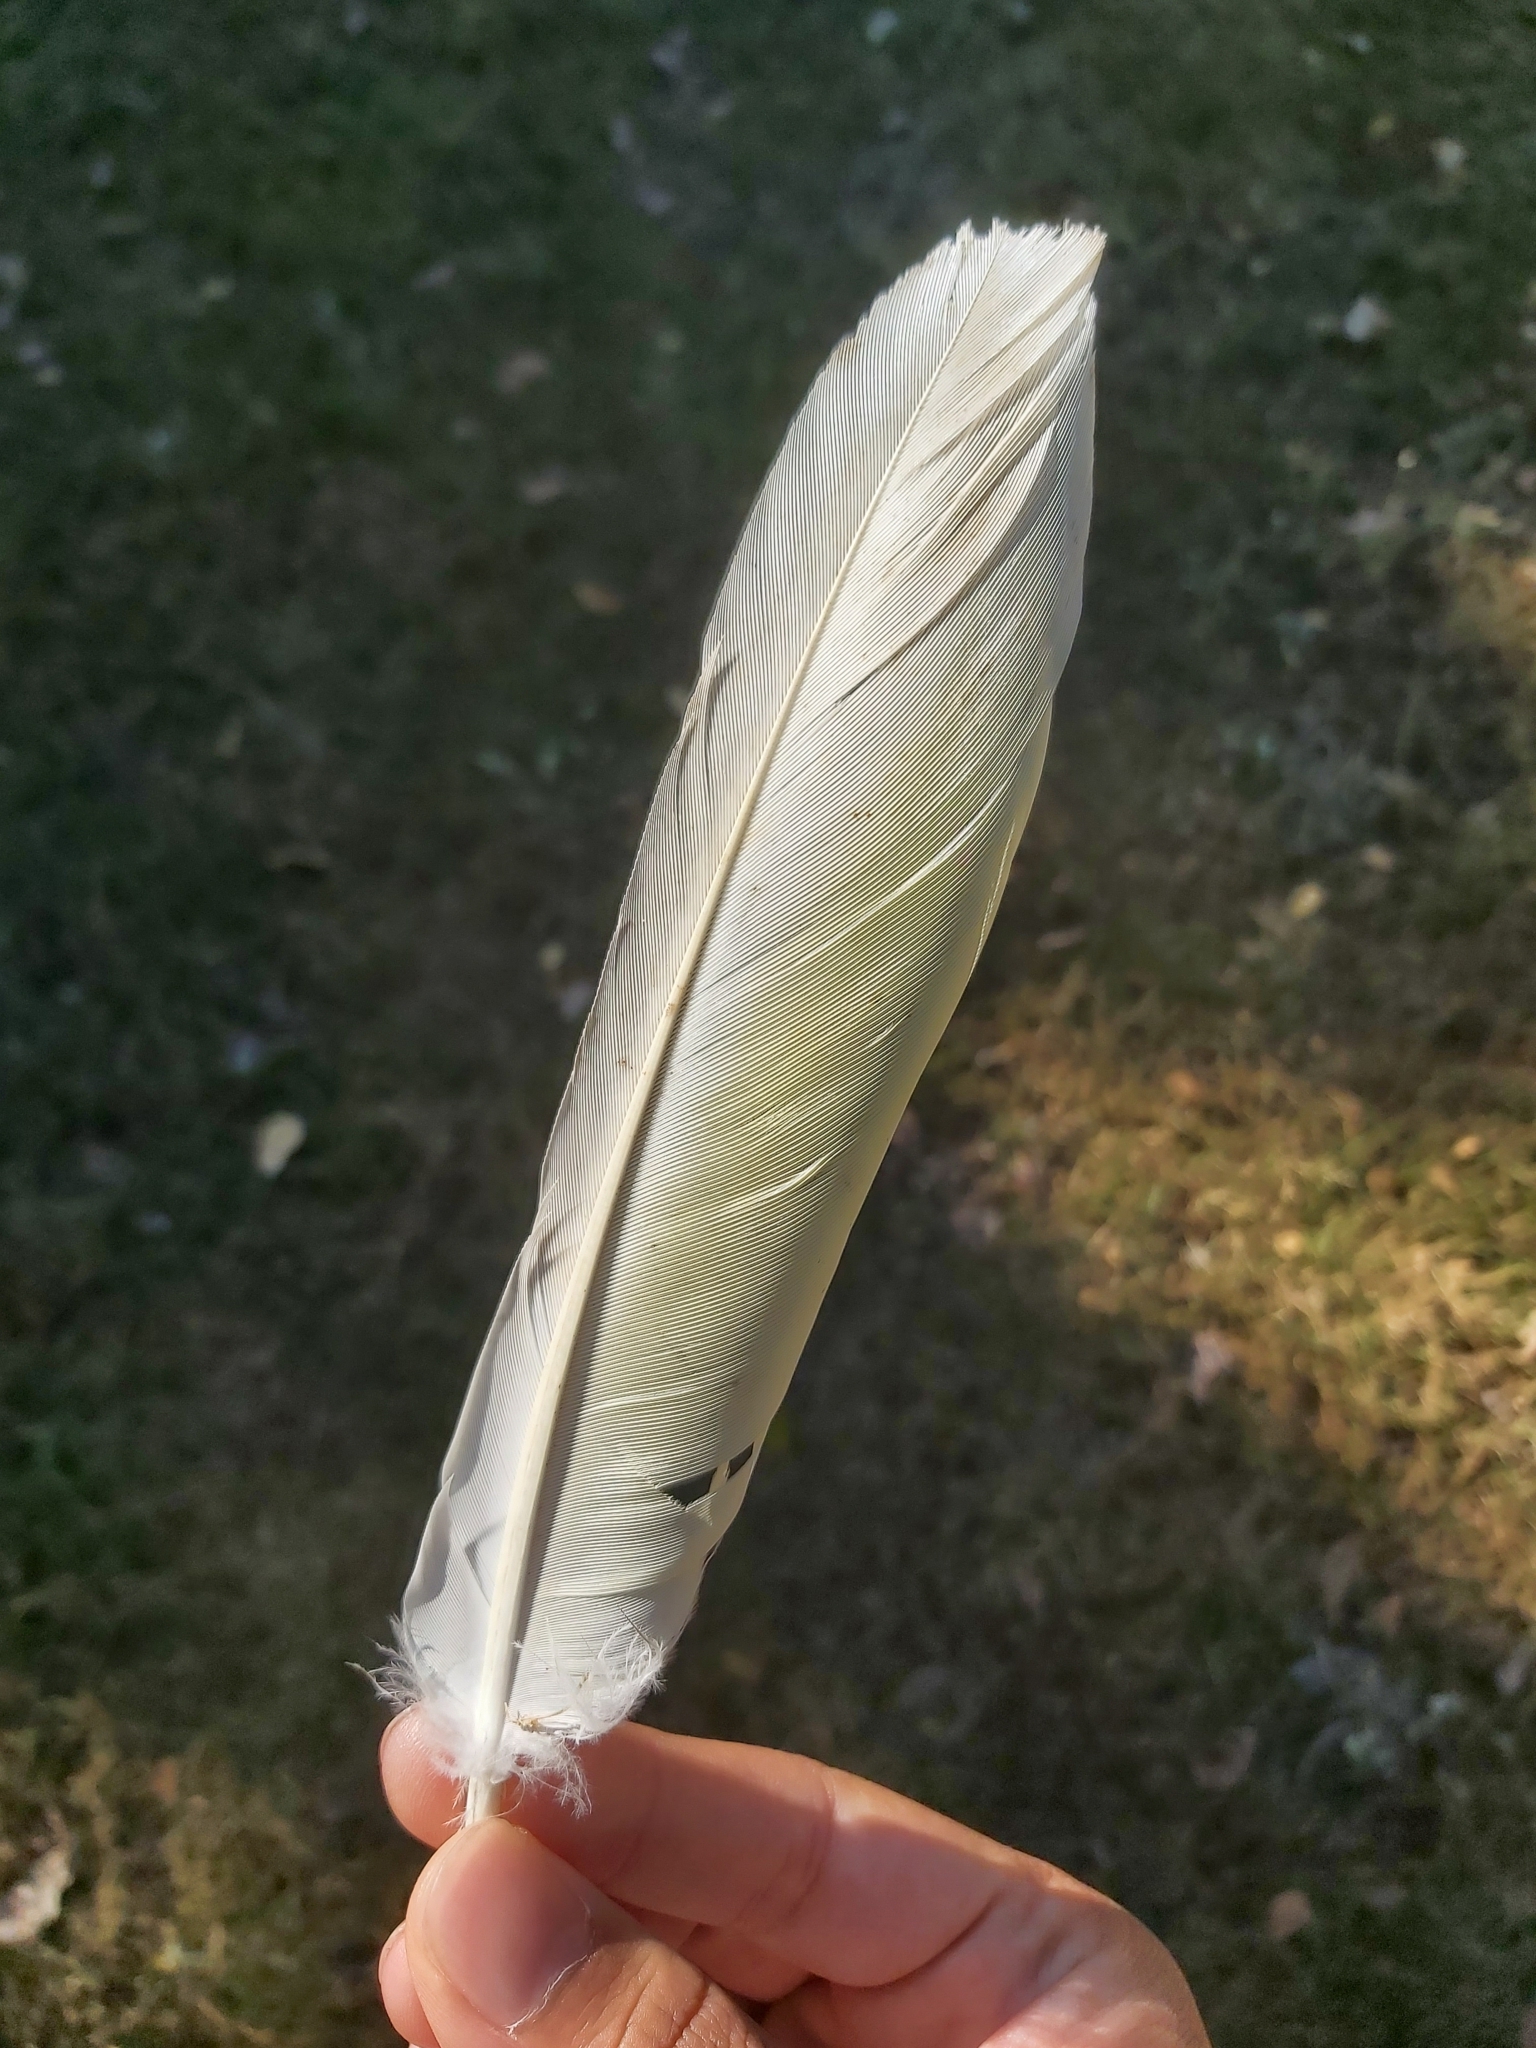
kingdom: Animalia
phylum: Chordata
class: Aves
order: Psittaciformes
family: Psittacidae
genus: Cacatua
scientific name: Cacatua galerita
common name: Sulphur-crested cockatoo
